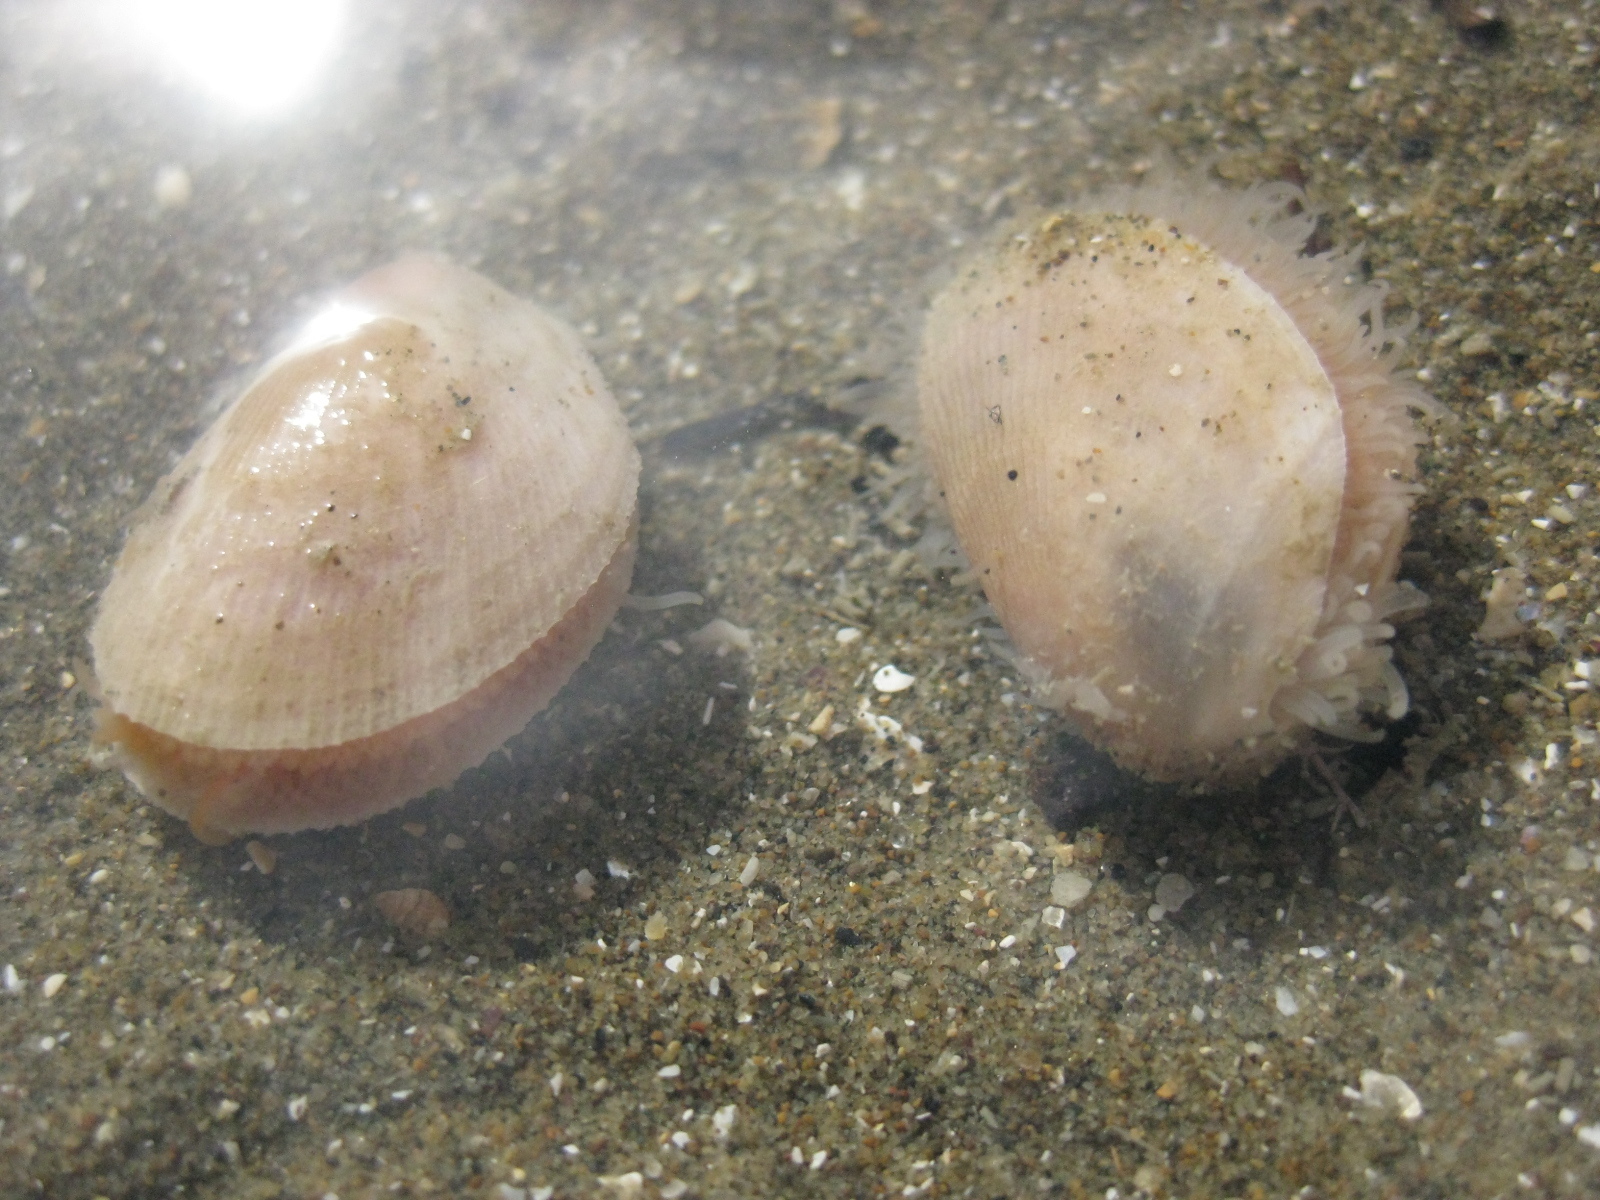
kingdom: Animalia
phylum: Mollusca
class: Bivalvia
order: Limida
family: Limidae
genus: Limaria
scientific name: Limaria orientalis
